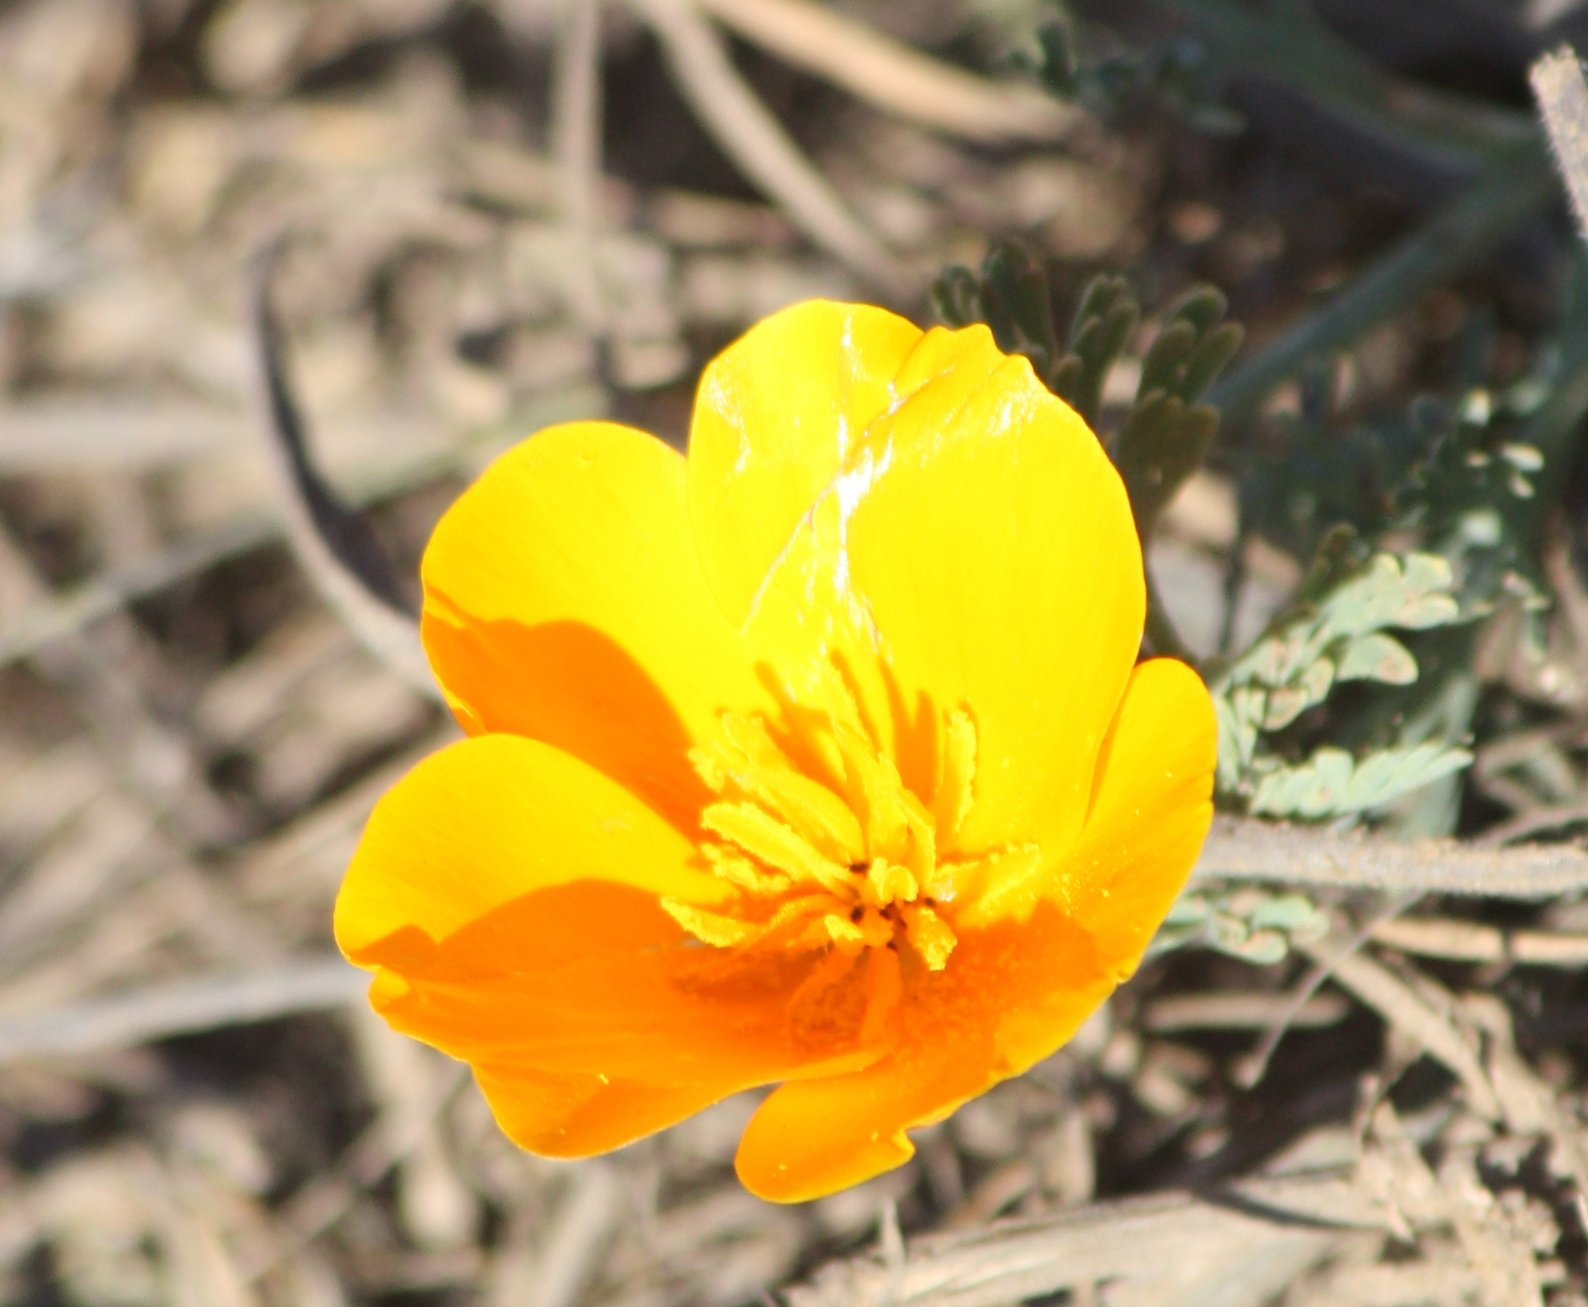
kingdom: Plantae
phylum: Tracheophyta
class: Magnoliopsida
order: Ranunculales
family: Papaveraceae
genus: Eschscholzia
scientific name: Eschscholzia californica
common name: California poppy
